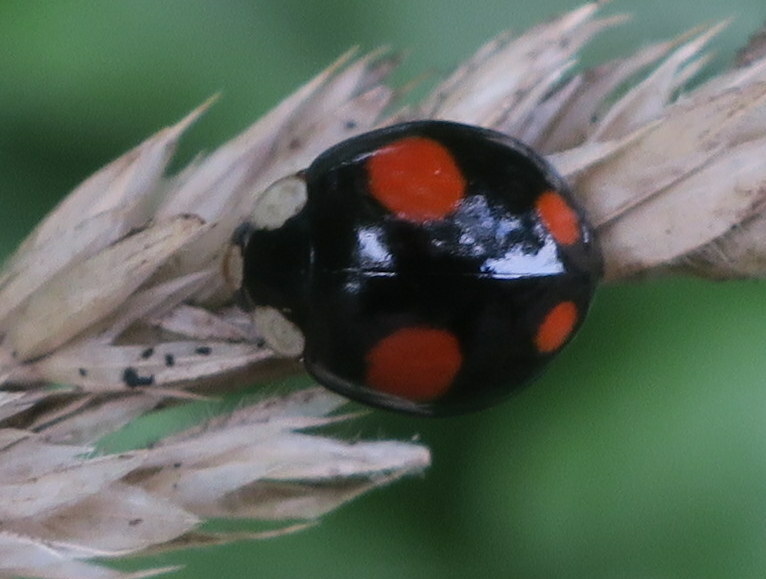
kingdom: Animalia
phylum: Arthropoda
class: Insecta
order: Coleoptera
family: Coccinellidae
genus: Harmonia
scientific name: Harmonia axyridis
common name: Harlequin ladybird
